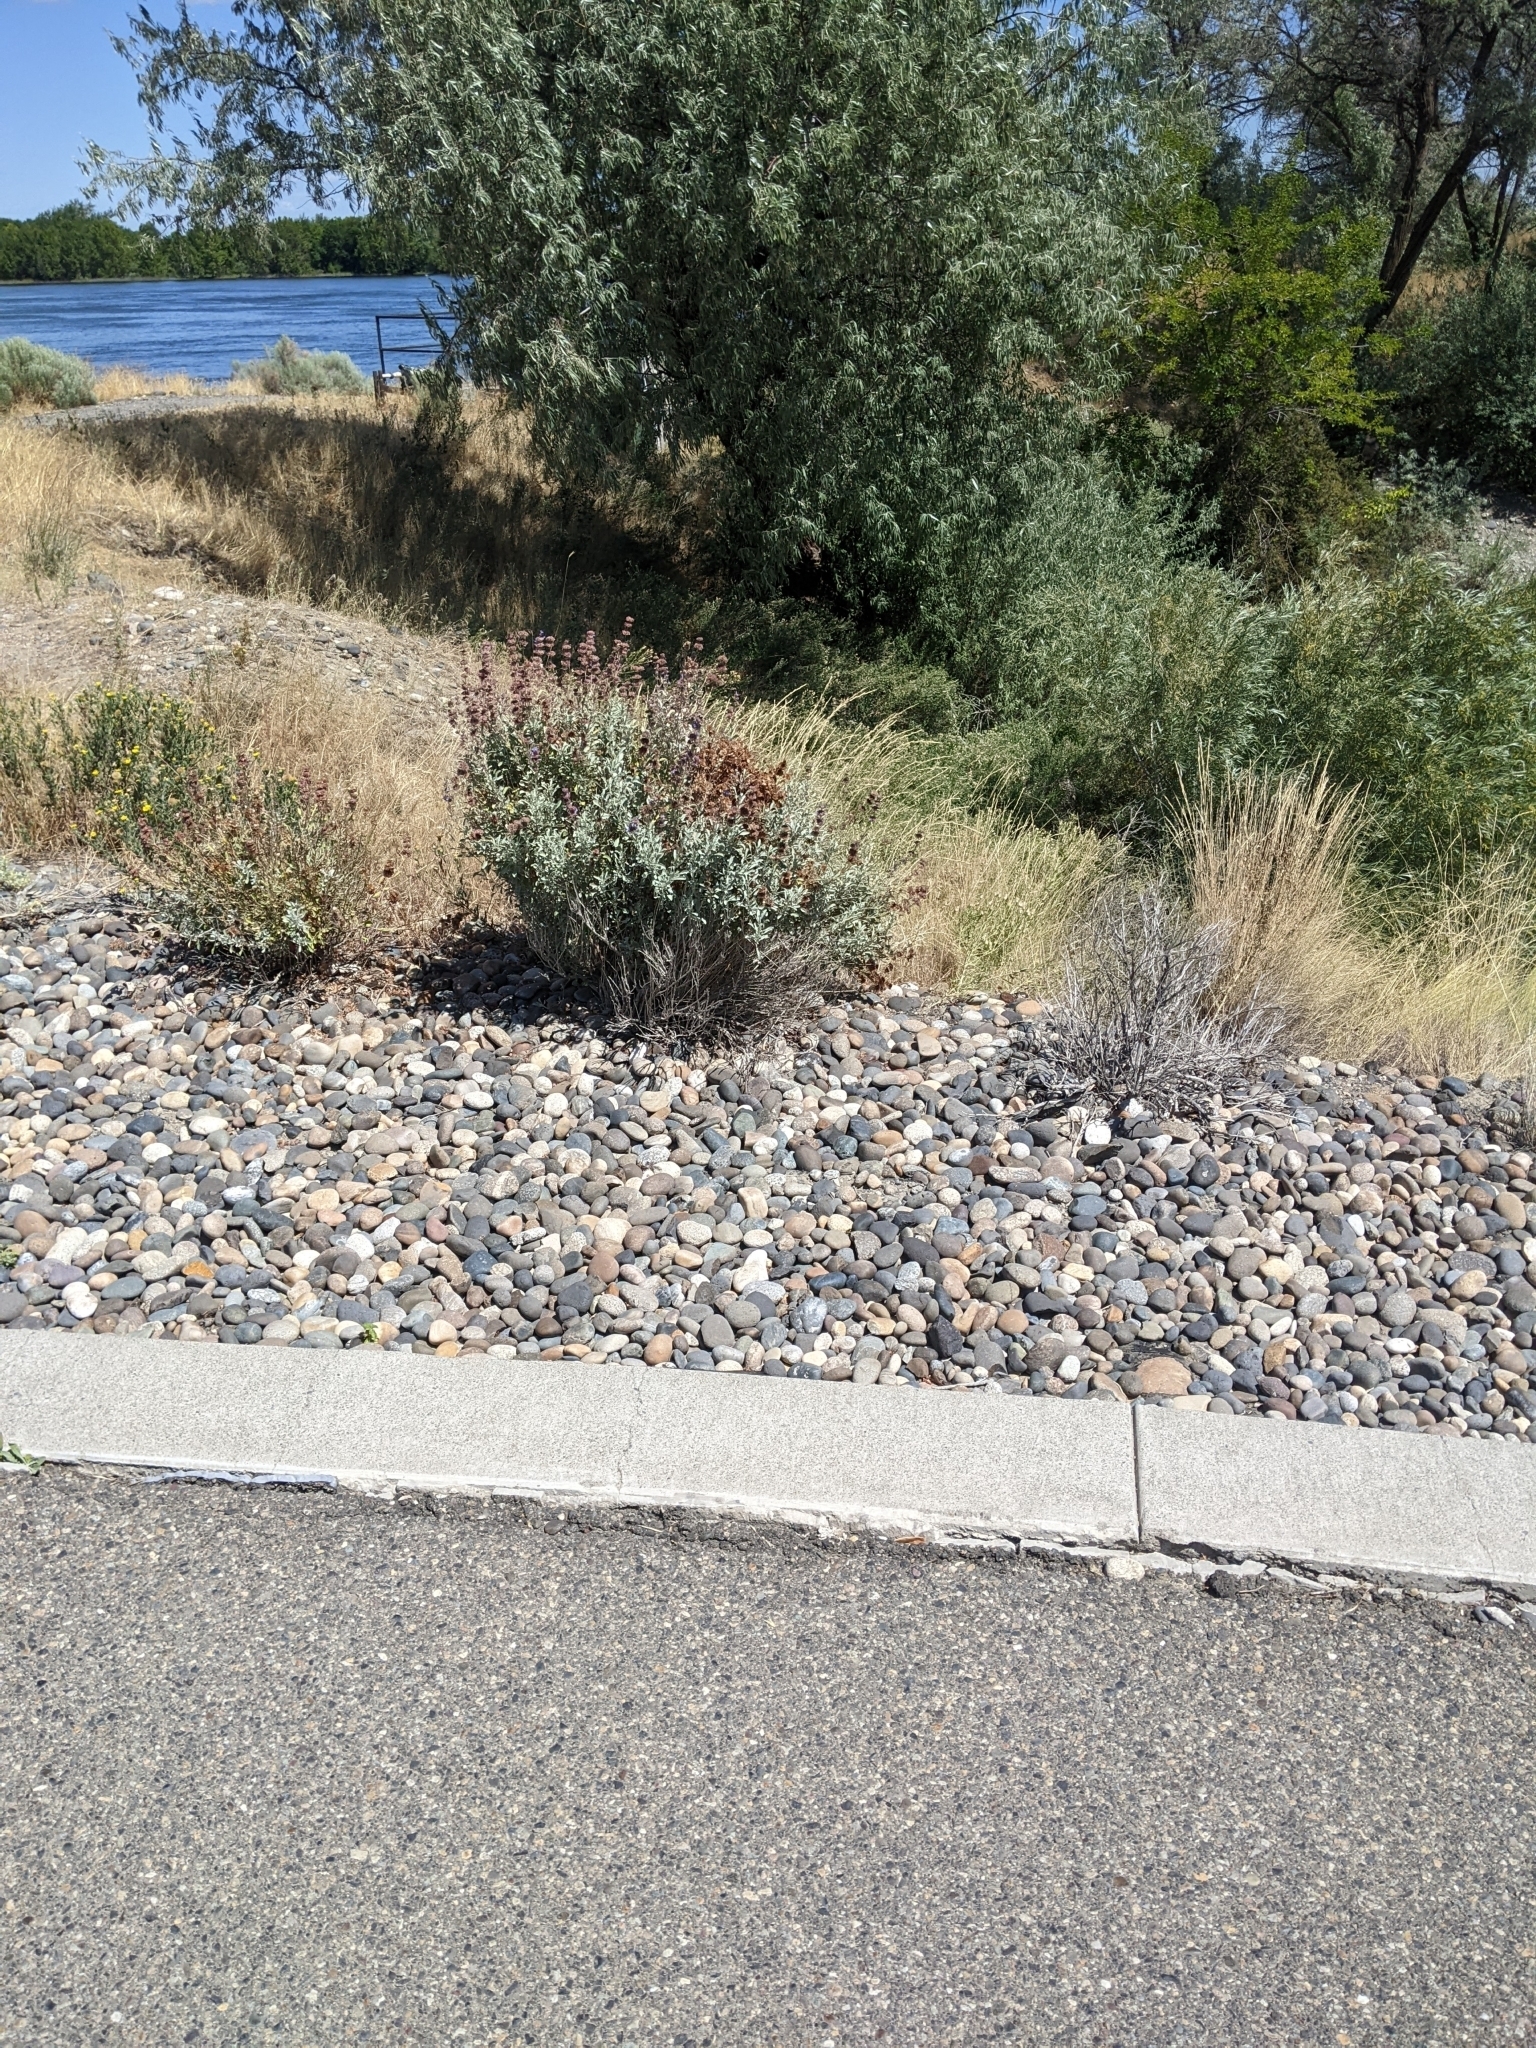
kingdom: Plantae
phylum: Tracheophyta
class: Magnoliopsida
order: Lamiales
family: Lamiaceae
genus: Salvia
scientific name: Salvia dorrii
